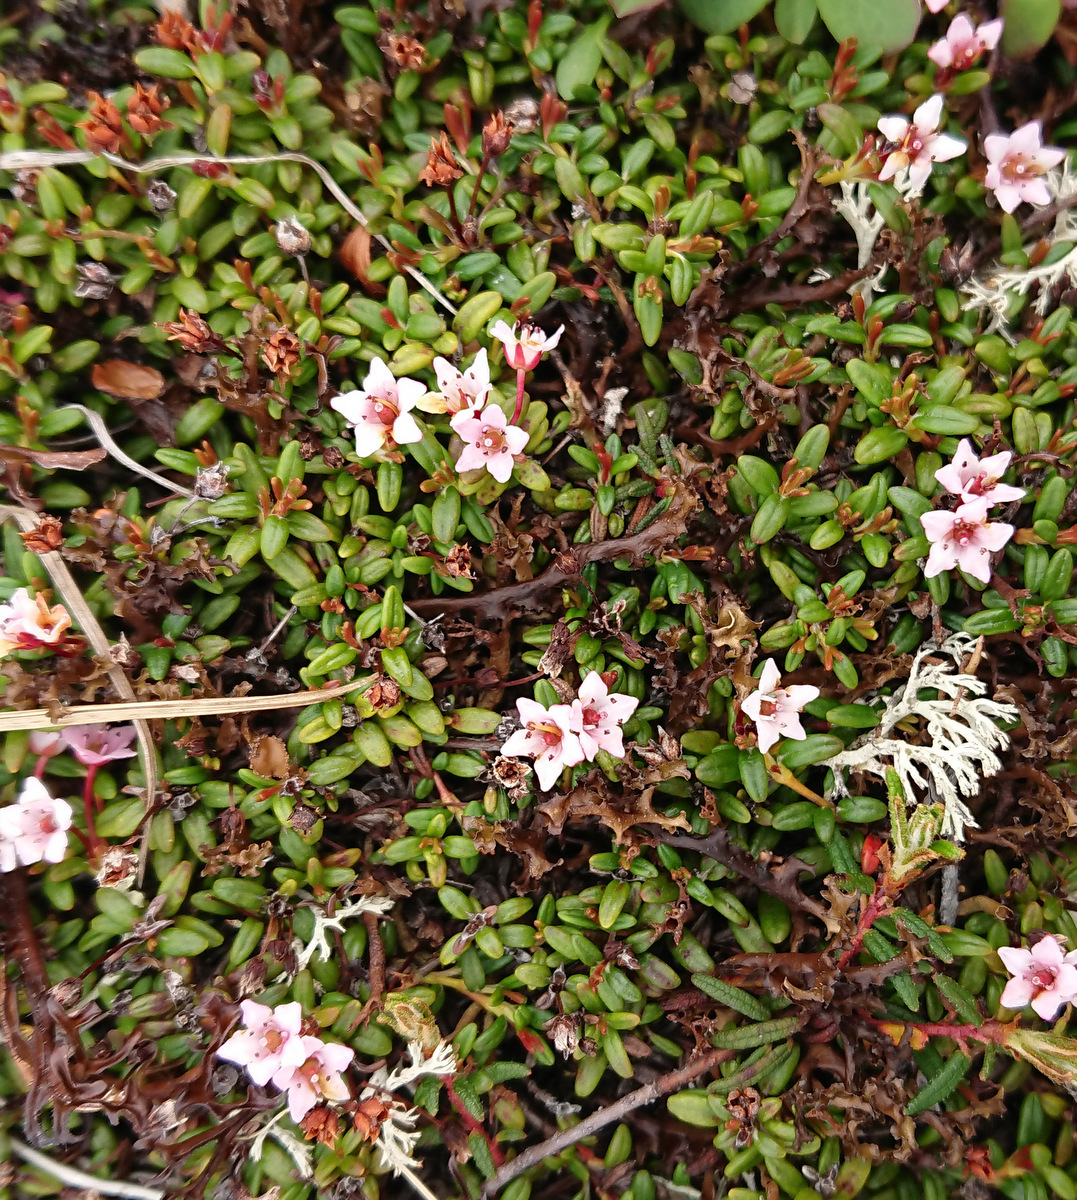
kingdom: Plantae
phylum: Tracheophyta
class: Magnoliopsida
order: Ericales
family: Ericaceae
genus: Kalmia
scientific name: Kalmia procumbens
